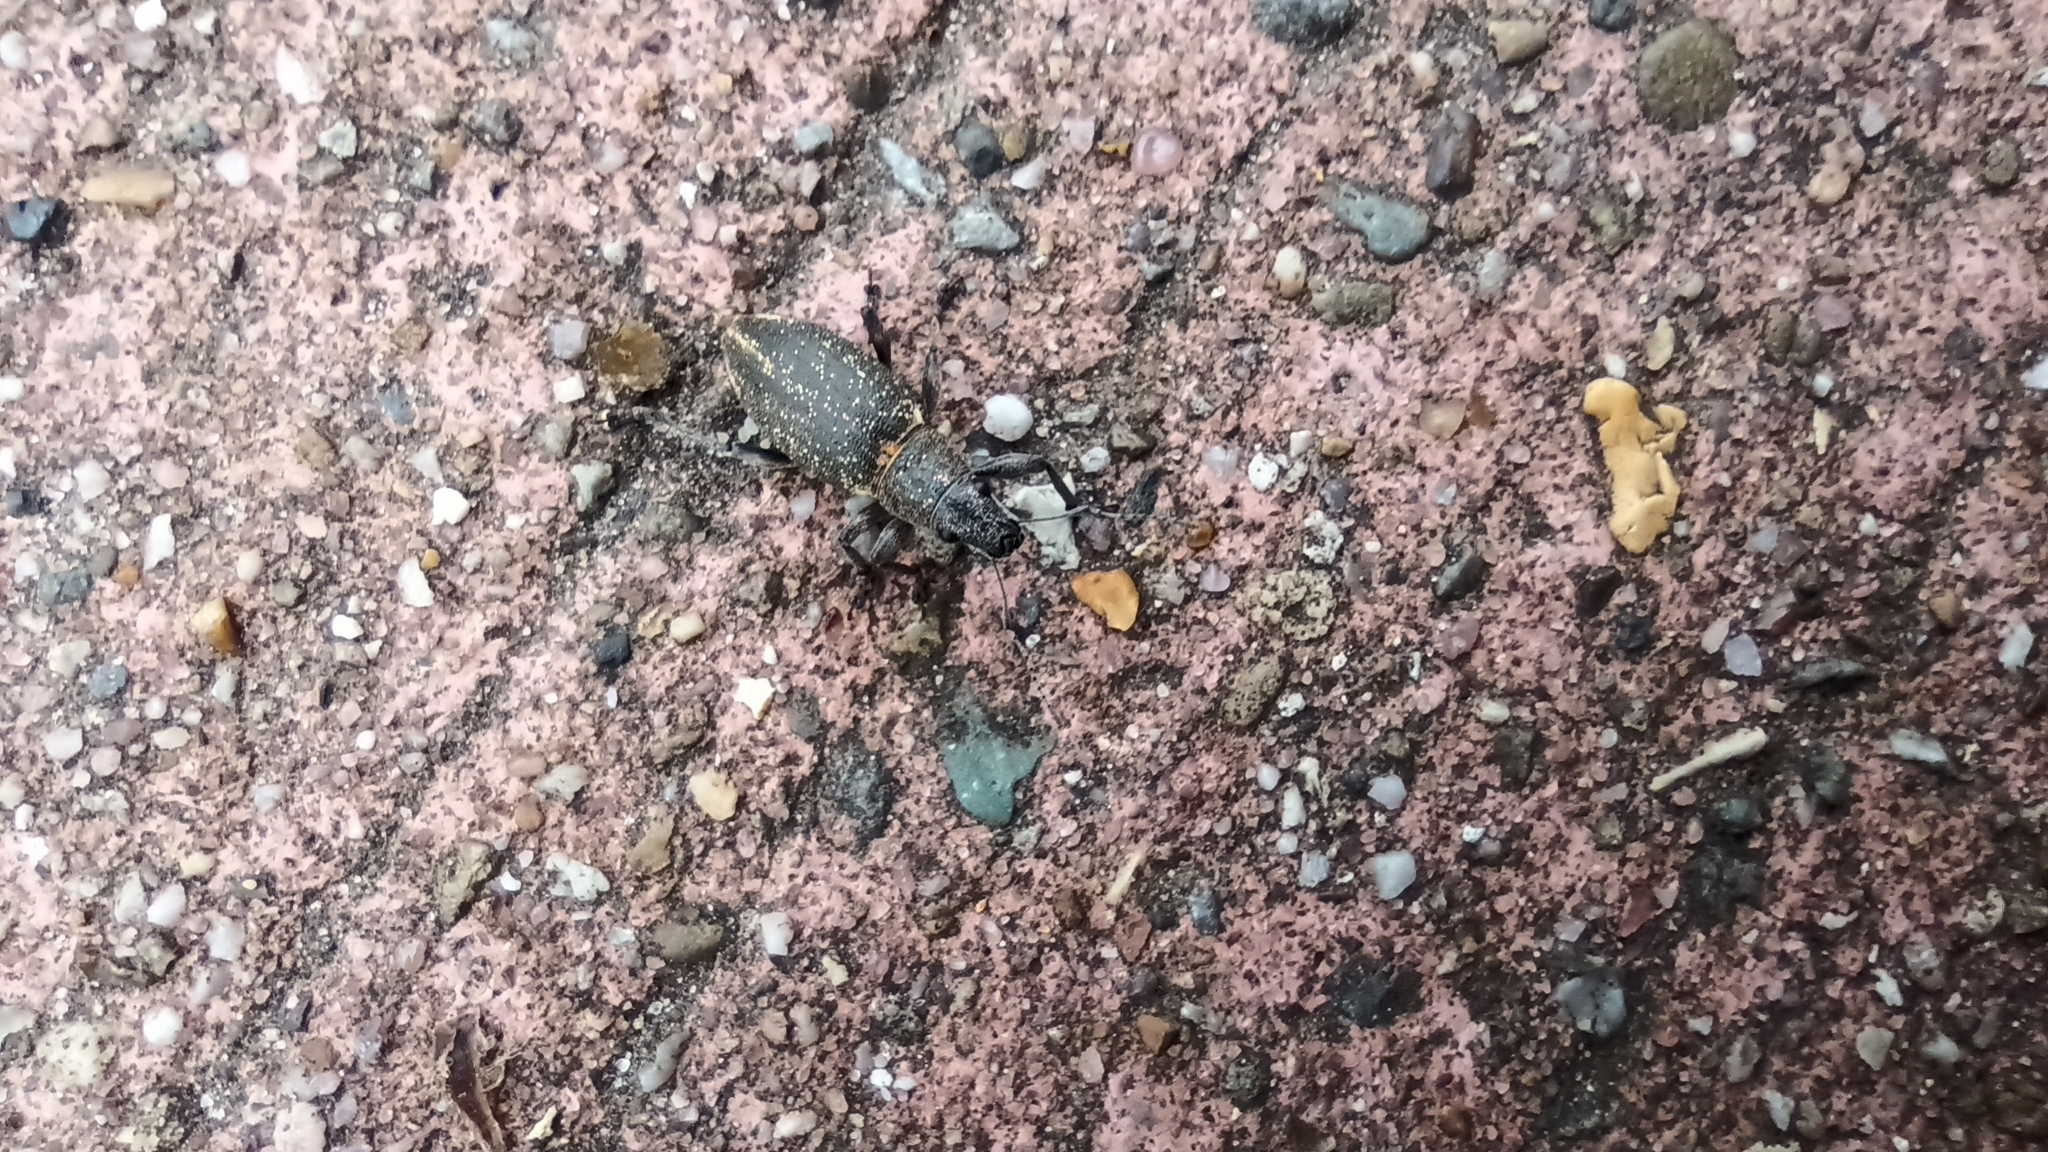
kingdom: Animalia
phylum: Arthropoda
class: Insecta
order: Coleoptera
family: Curculionidae
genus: Brachyderes
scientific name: Brachyderes lusitanicus
